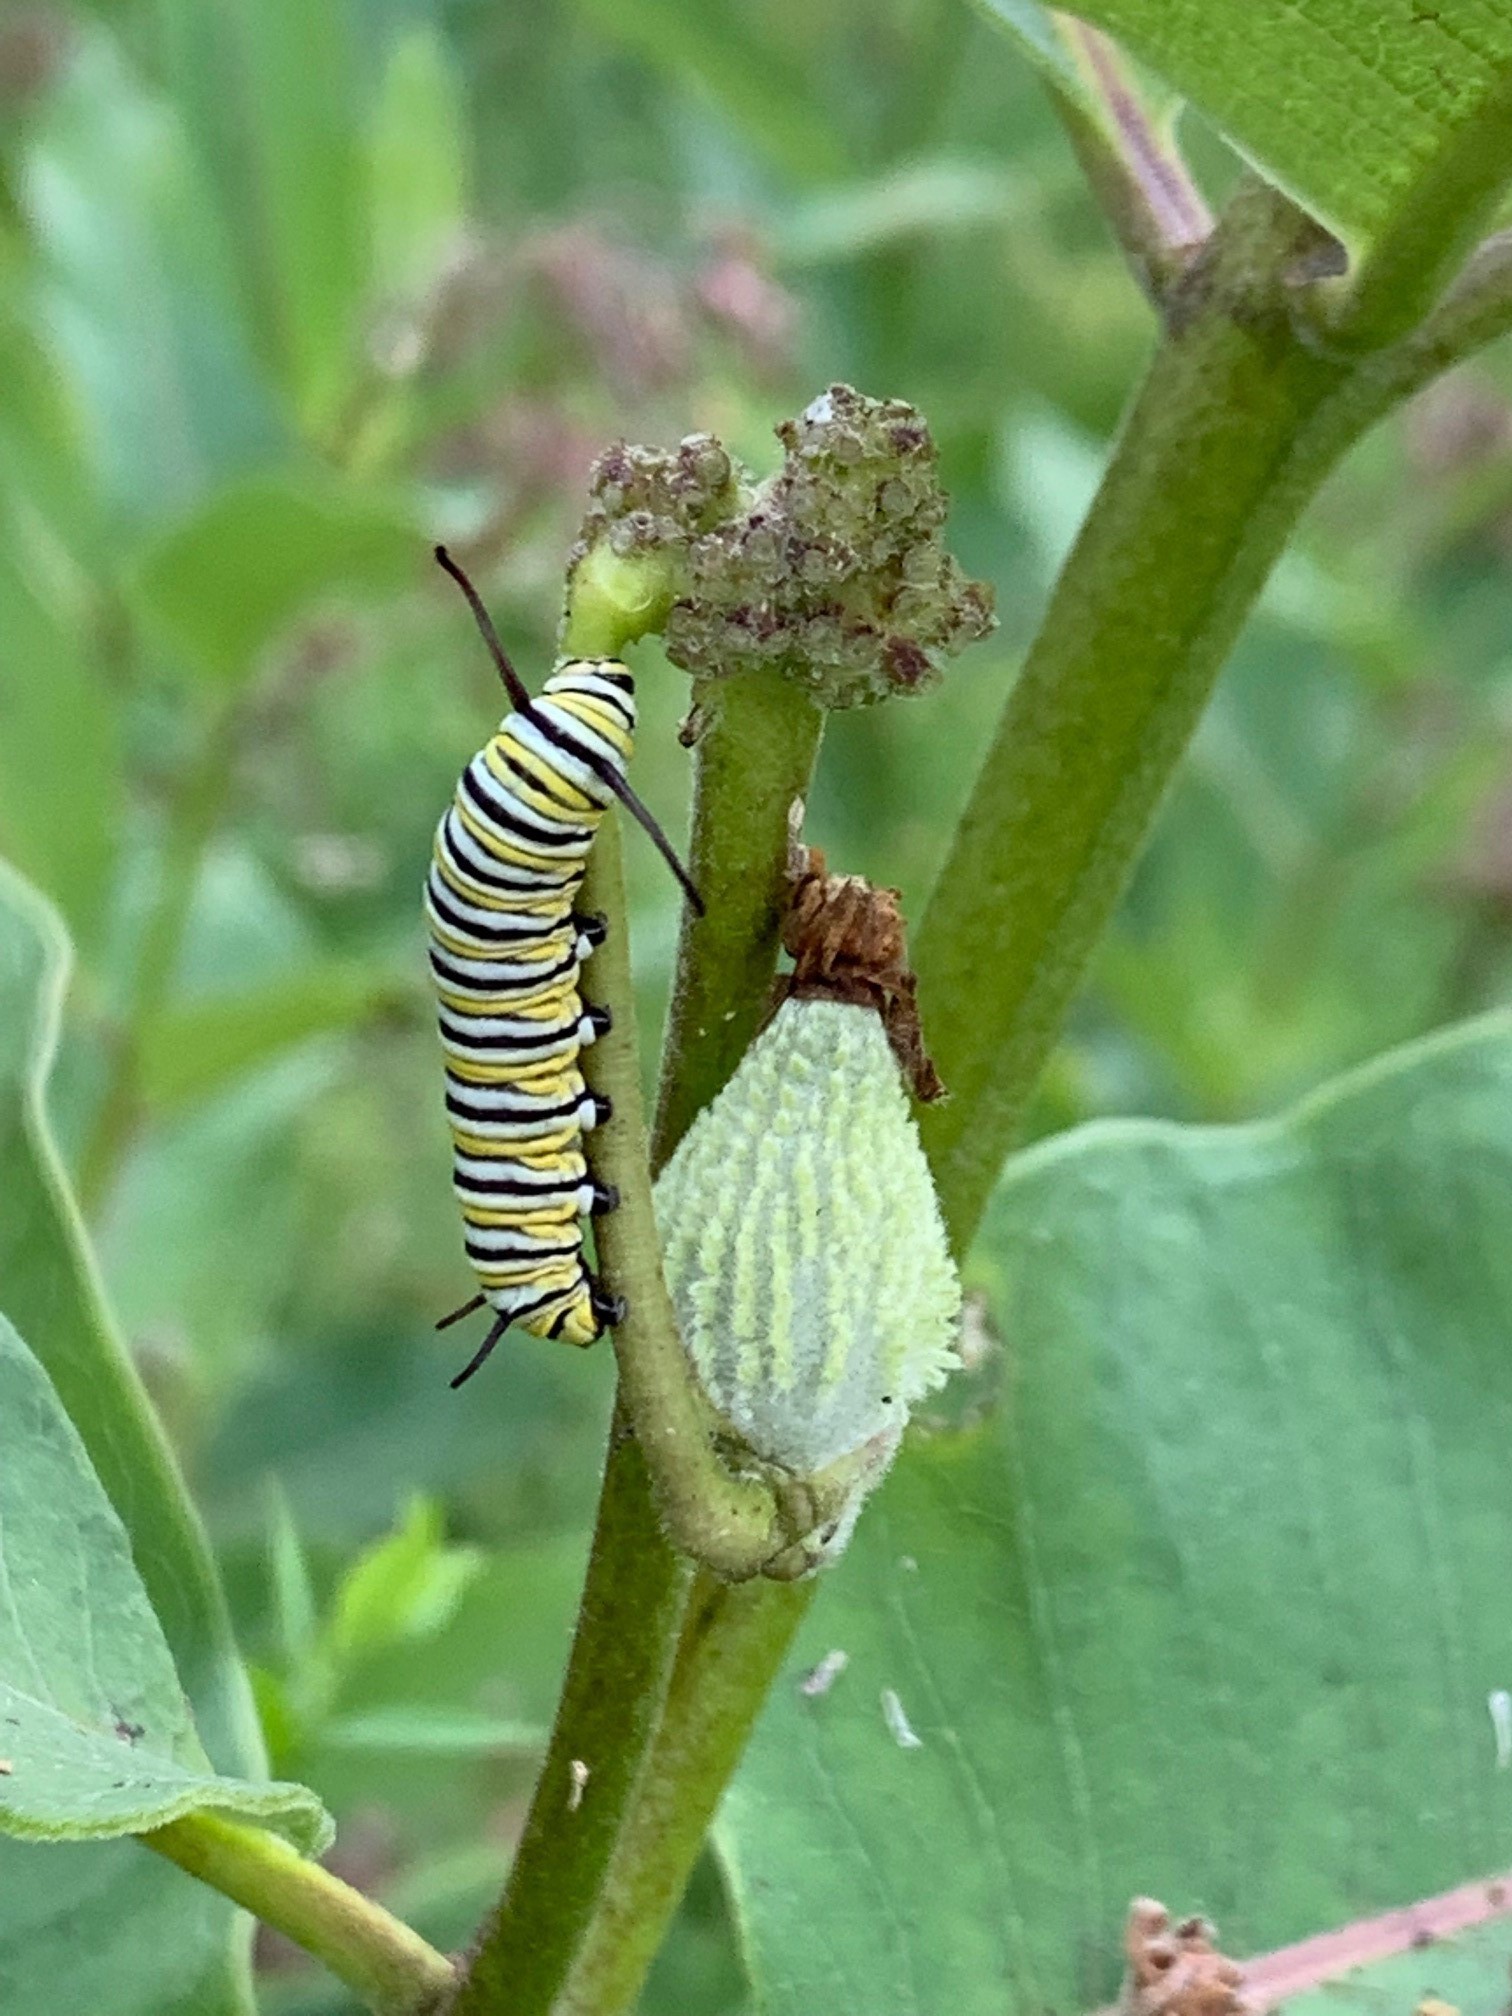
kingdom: Animalia
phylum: Arthropoda
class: Insecta
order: Lepidoptera
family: Nymphalidae
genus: Danaus
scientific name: Danaus plexippus
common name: Monarch
